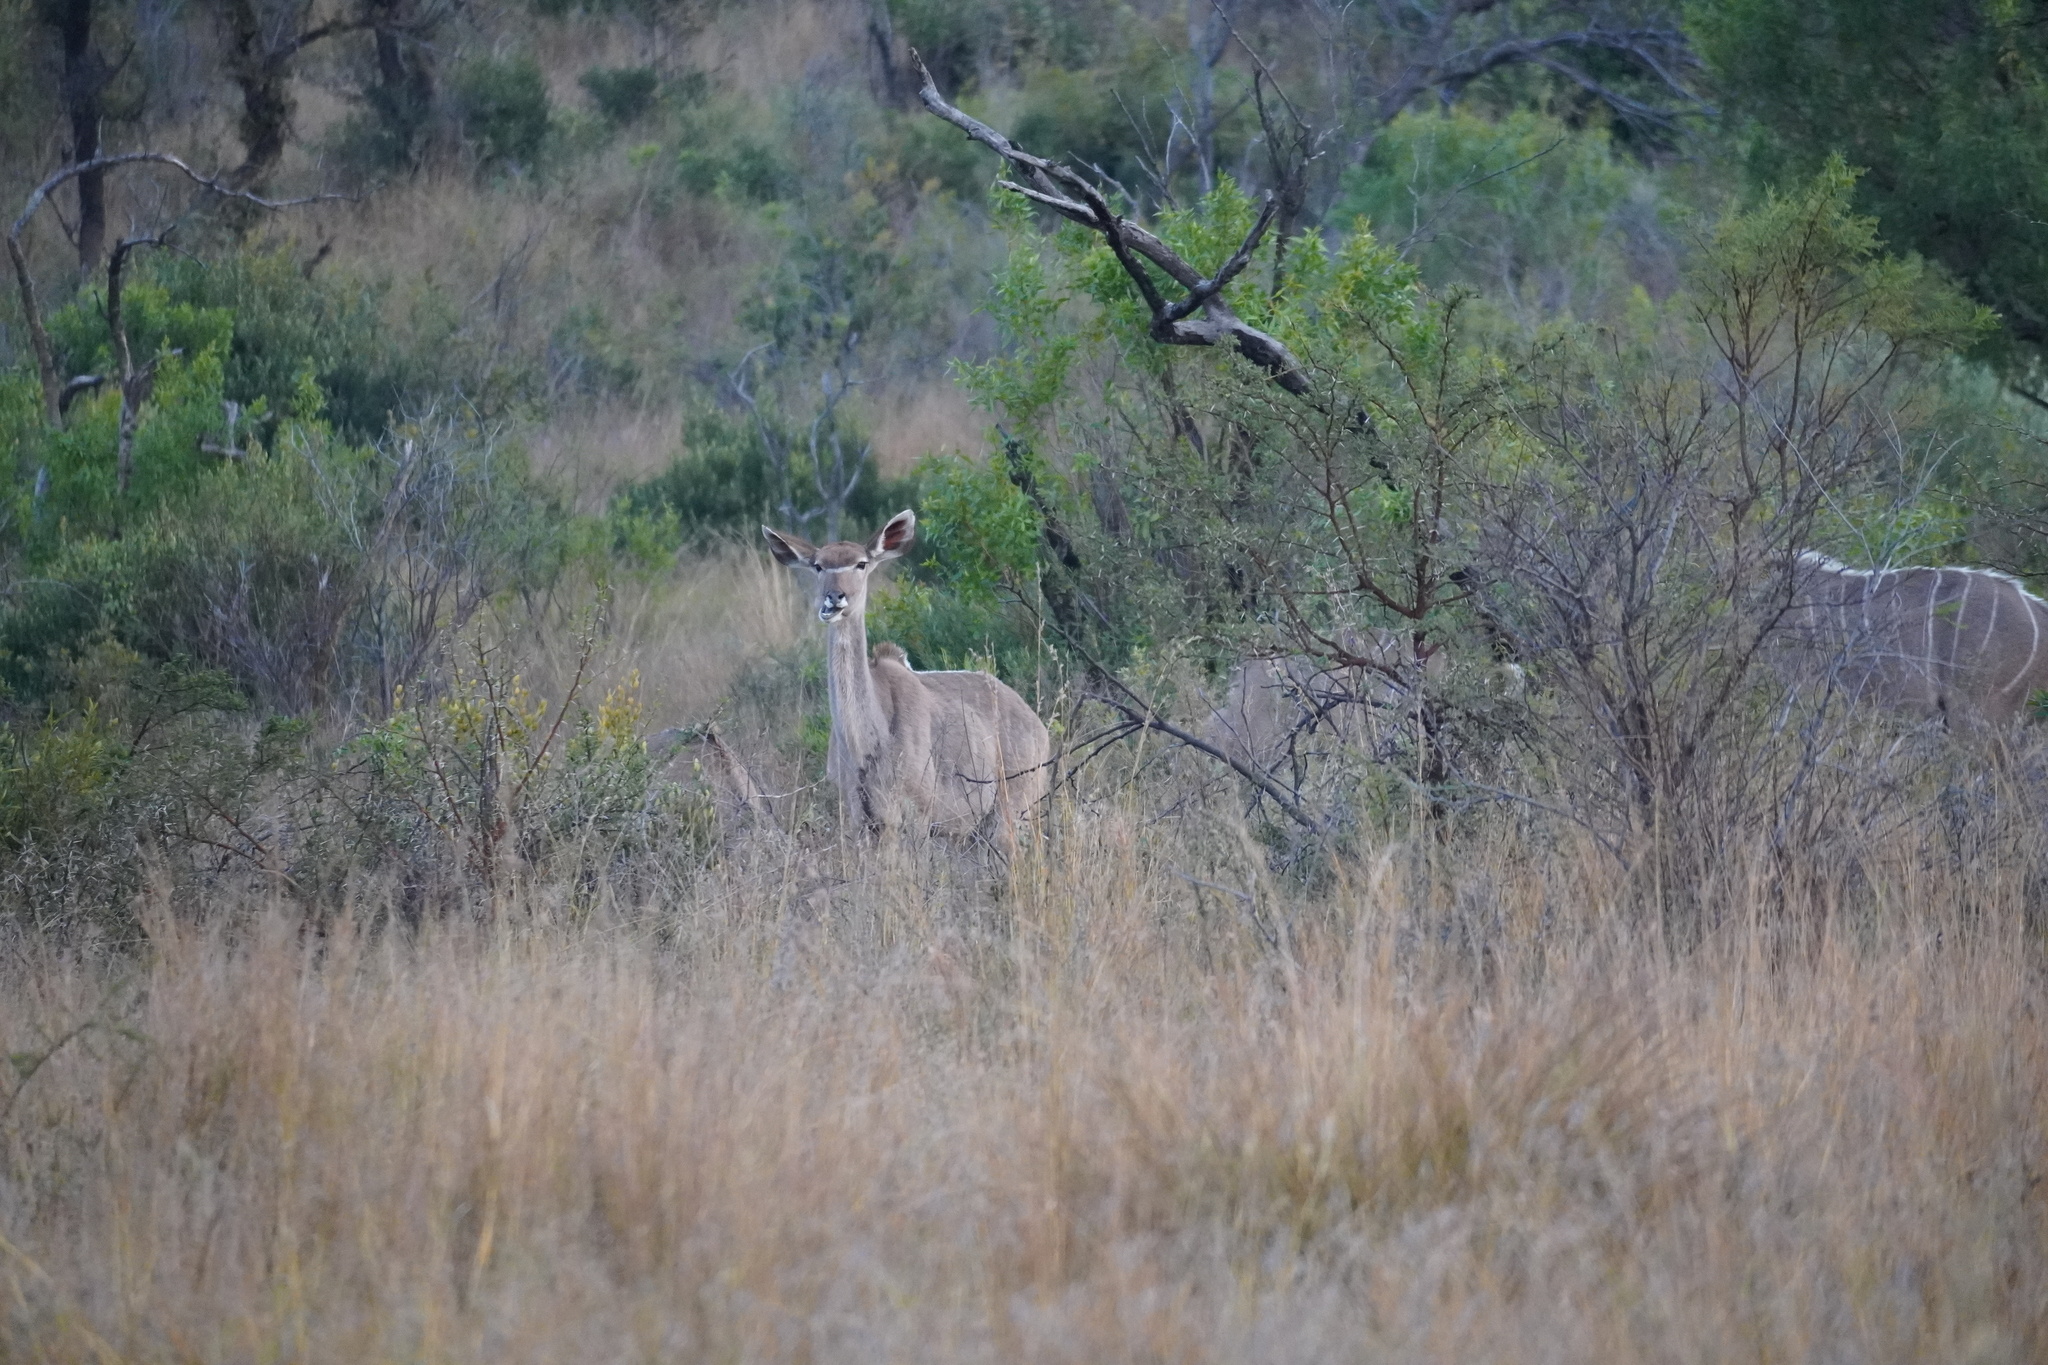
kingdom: Animalia
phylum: Chordata
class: Mammalia
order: Artiodactyla
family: Bovidae
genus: Tragelaphus
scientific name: Tragelaphus strepsiceros
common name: Greater kudu
